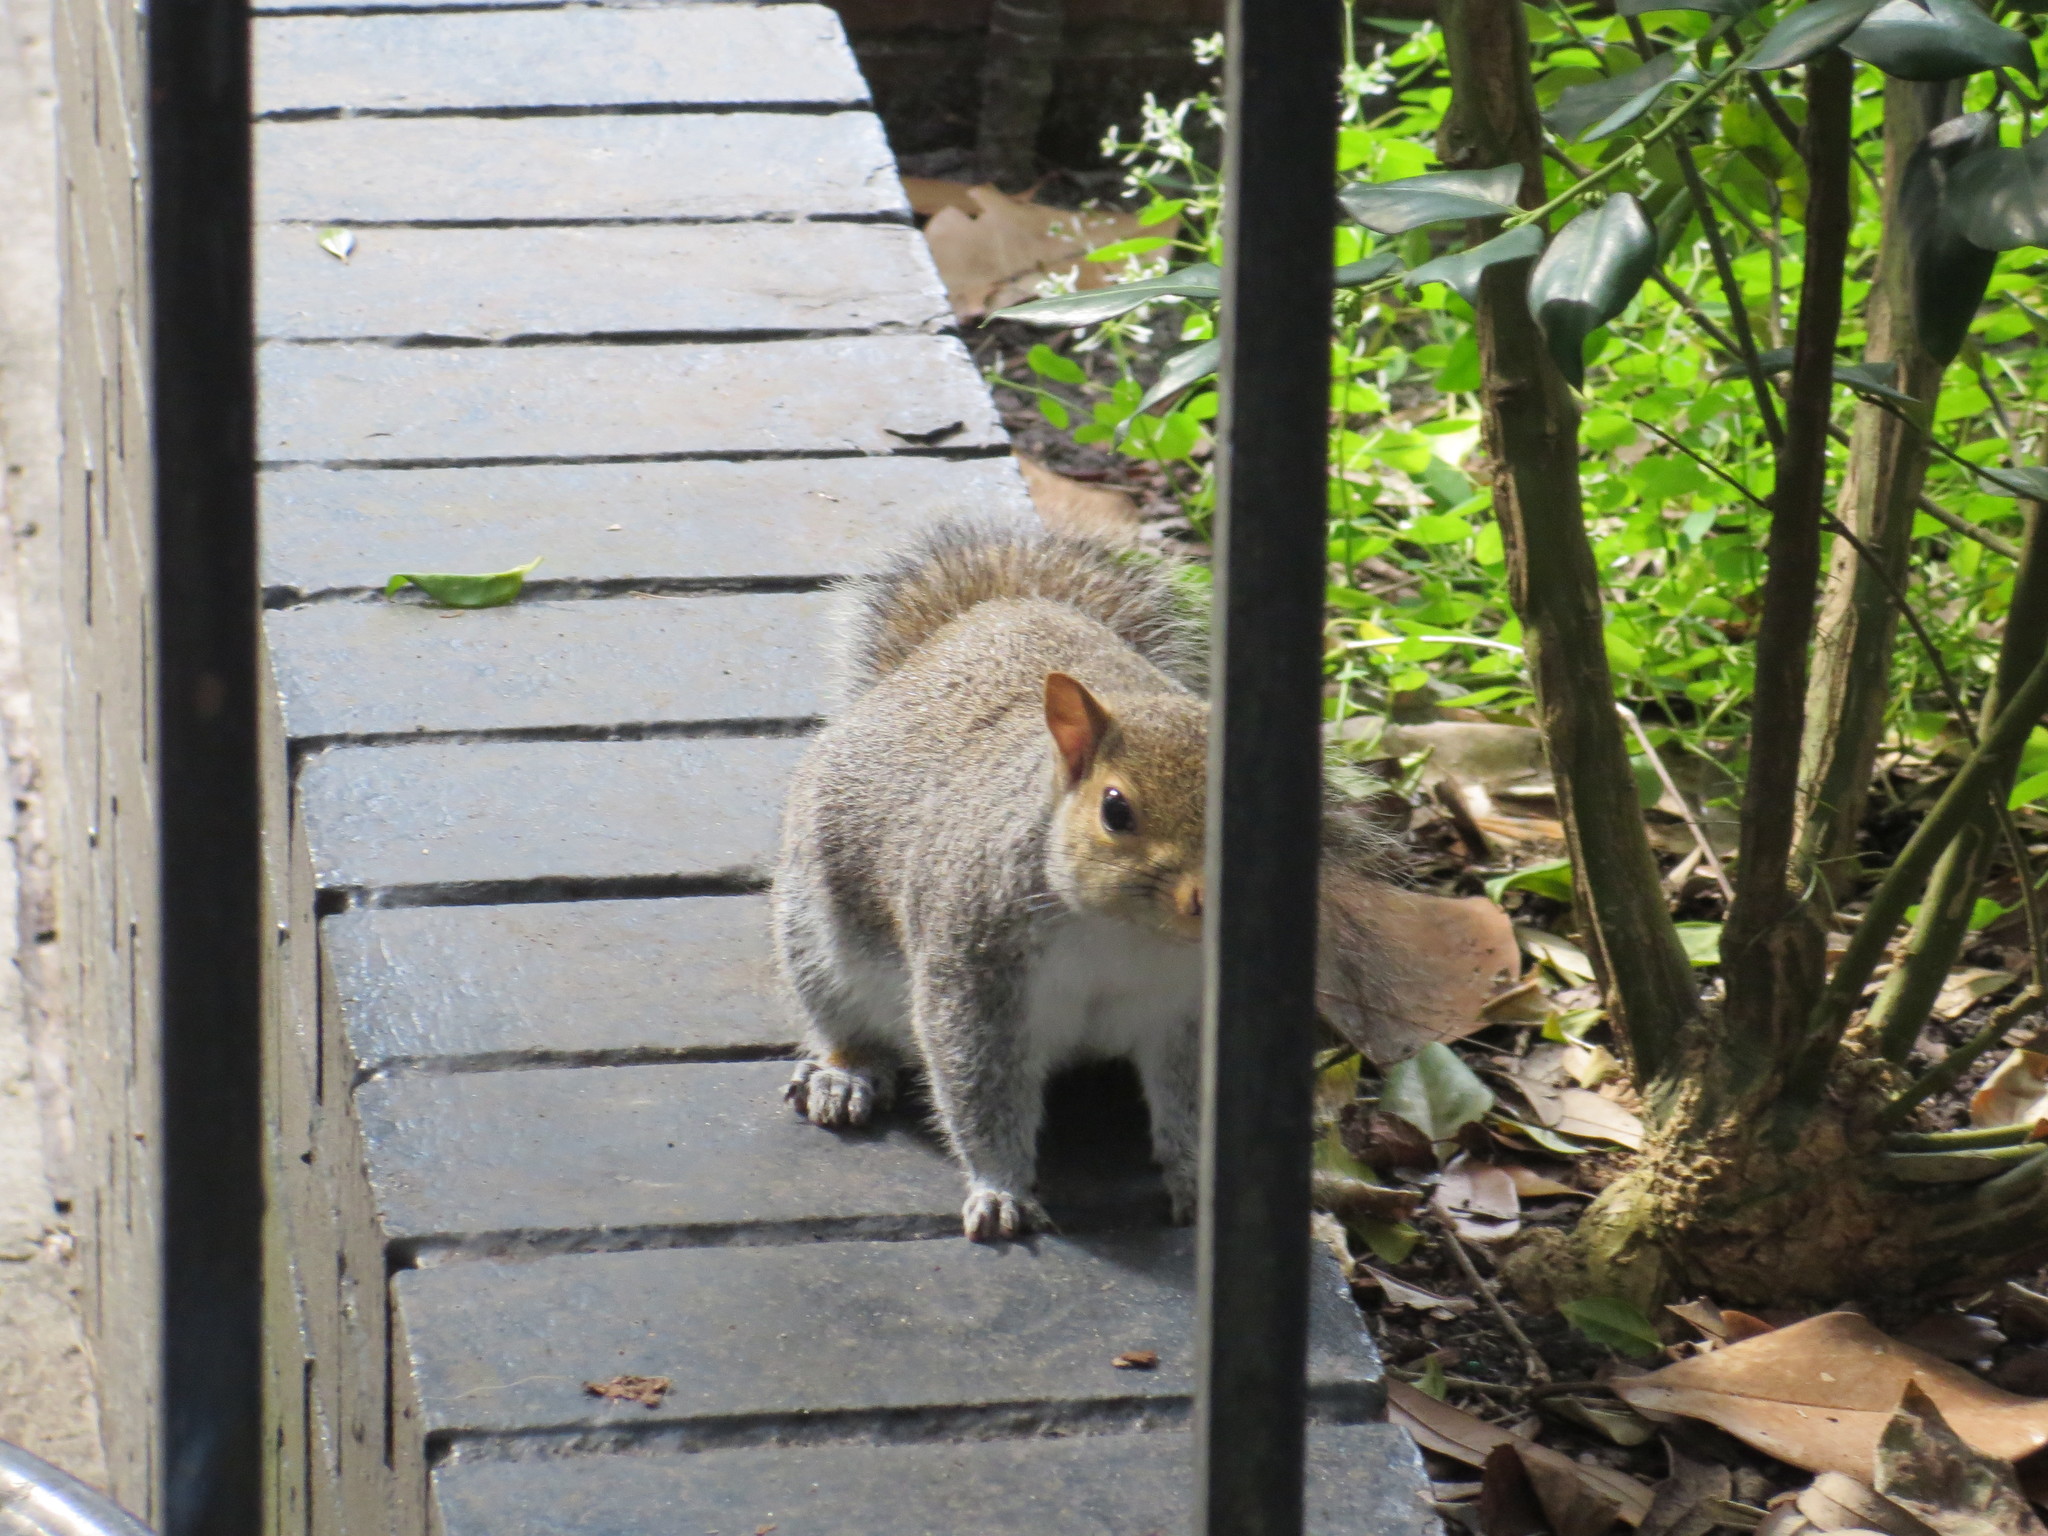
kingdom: Animalia
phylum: Chordata
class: Mammalia
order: Rodentia
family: Sciuridae
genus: Sciurus
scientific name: Sciurus carolinensis
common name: Eastern gray squirrel
